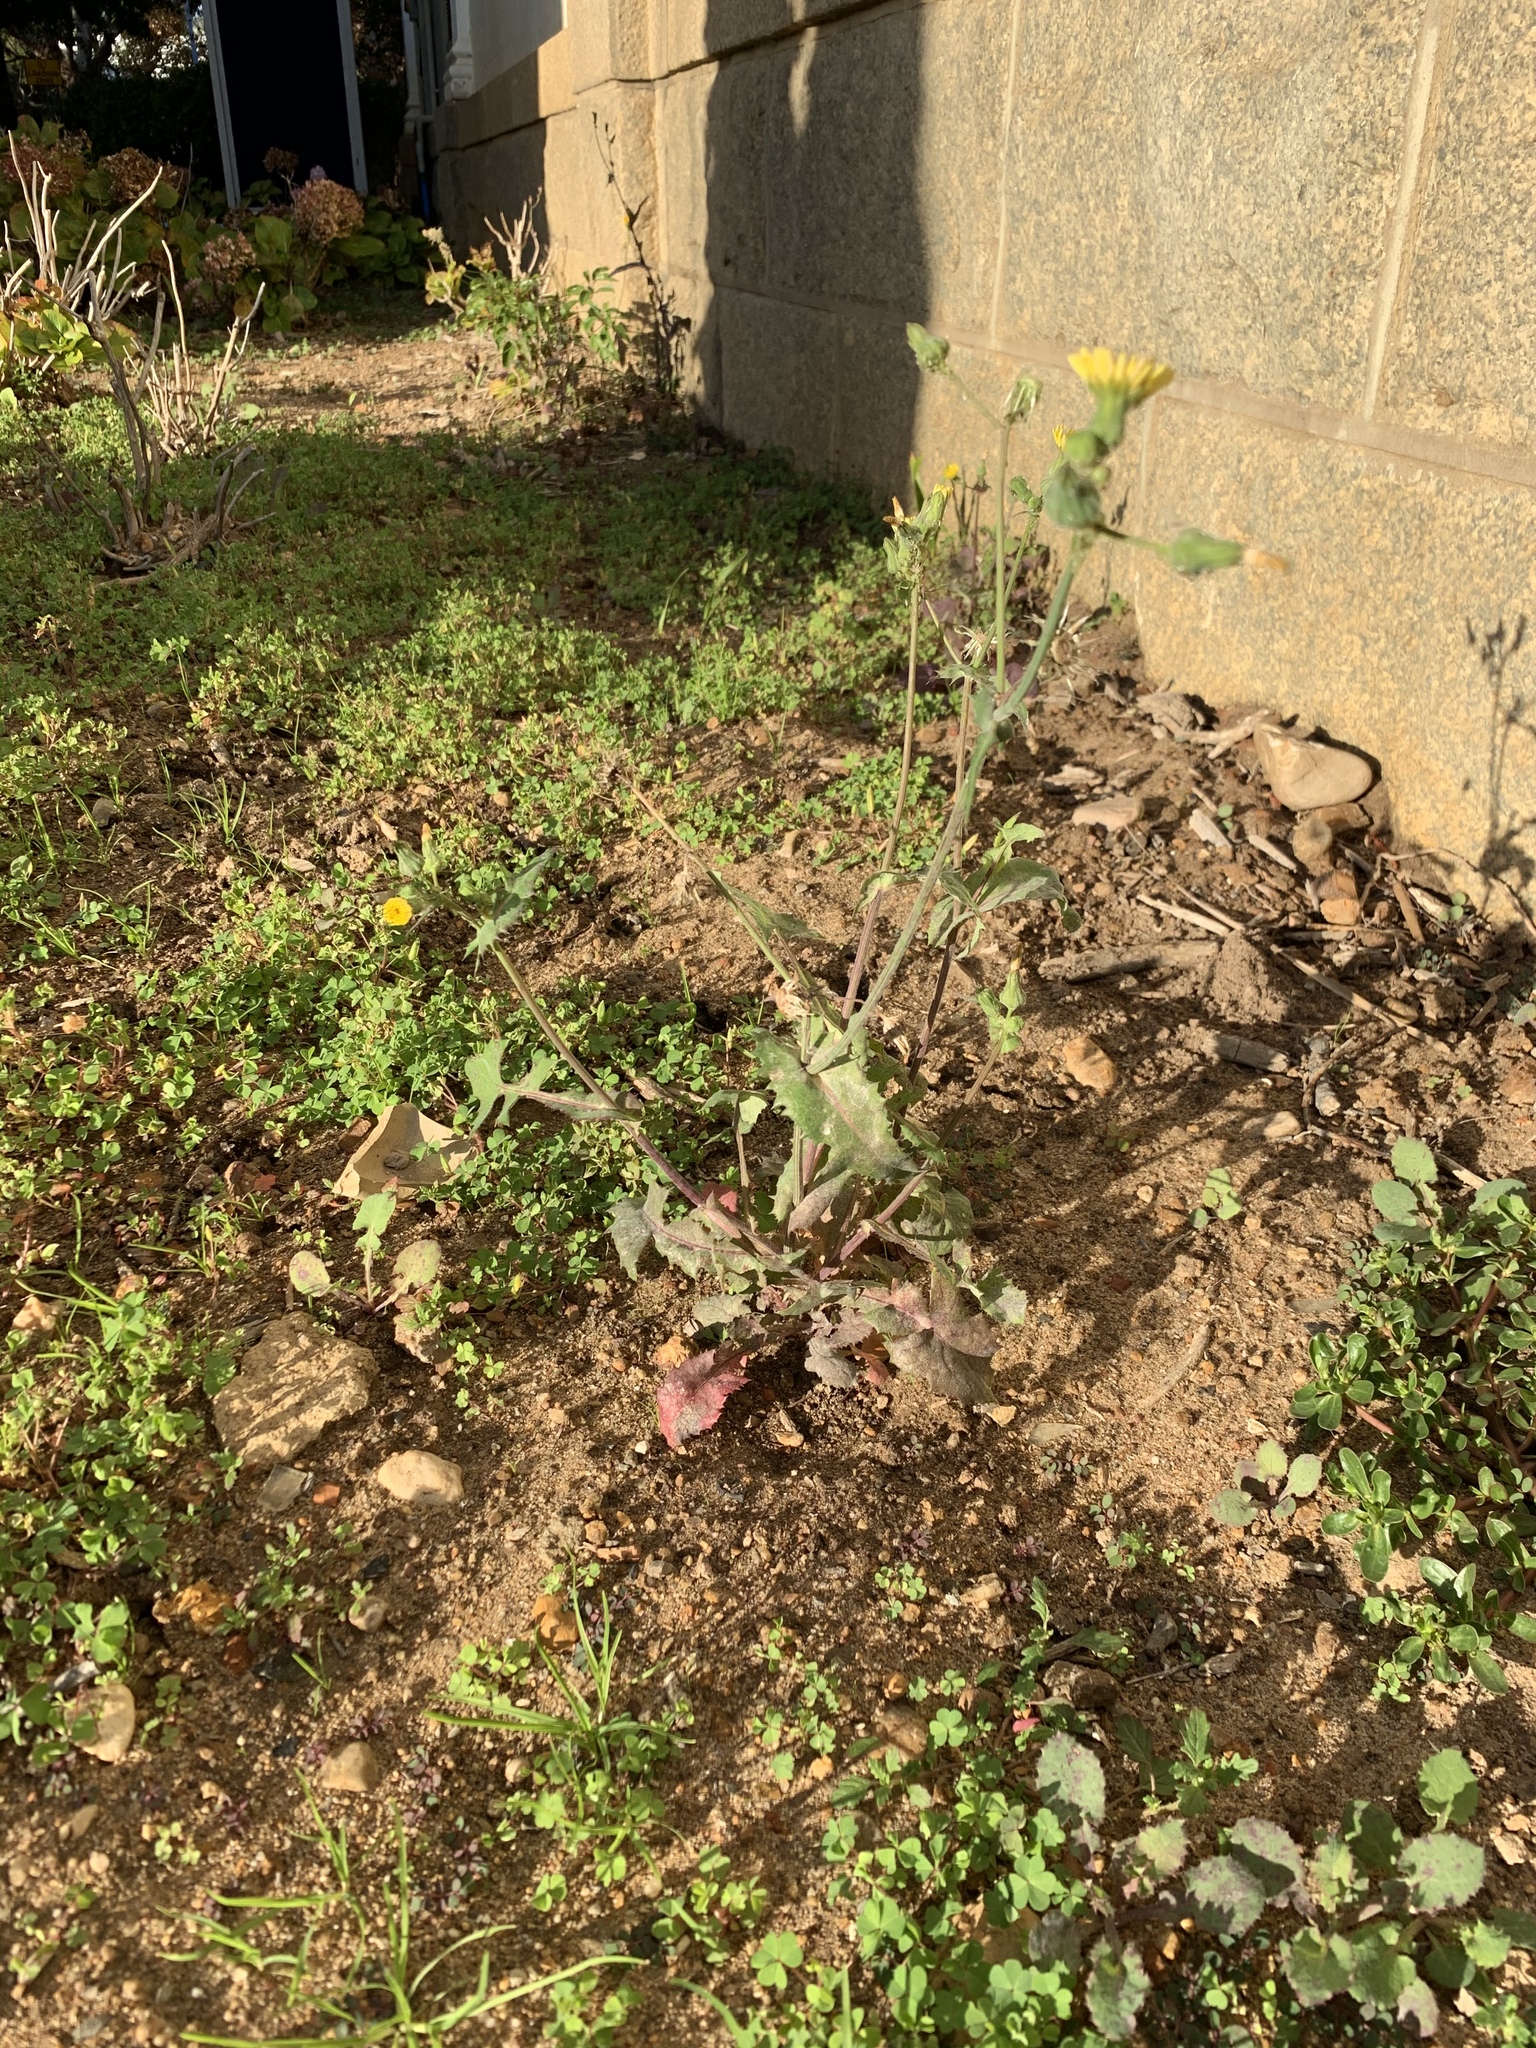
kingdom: Plantae
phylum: Tracheophyta
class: Magnoliopsida
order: Asterales
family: Asteraceae
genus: Sonchus
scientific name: Sonchus oleraceus
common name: Common sowthistle
